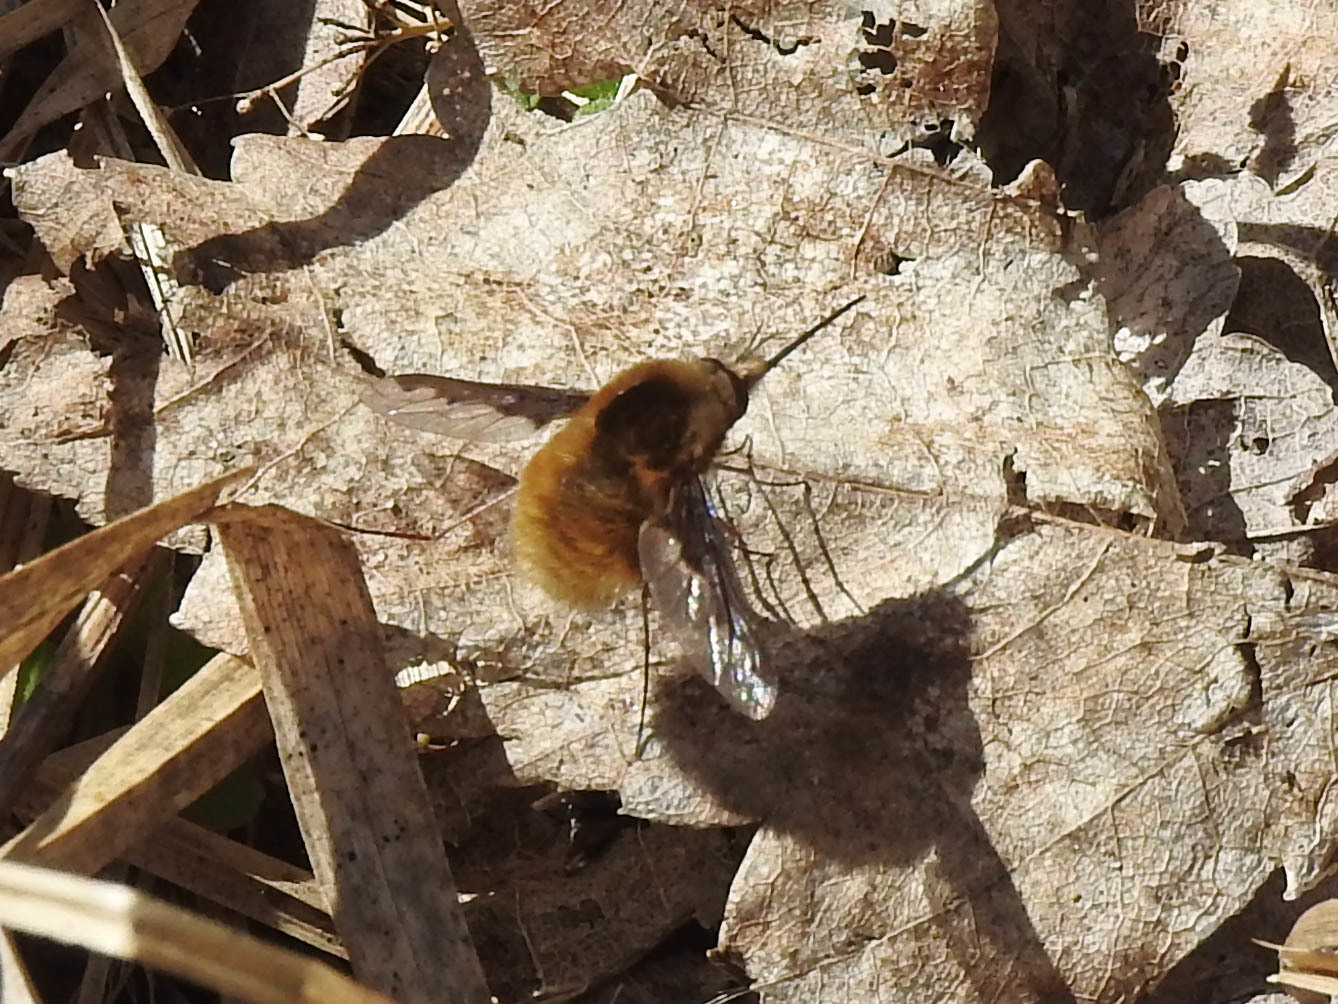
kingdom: Animalia
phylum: Arthropoda
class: Insecta
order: Diptera
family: Bombyliidae
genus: Bombylius
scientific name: Bombylius major
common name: Bee fly
